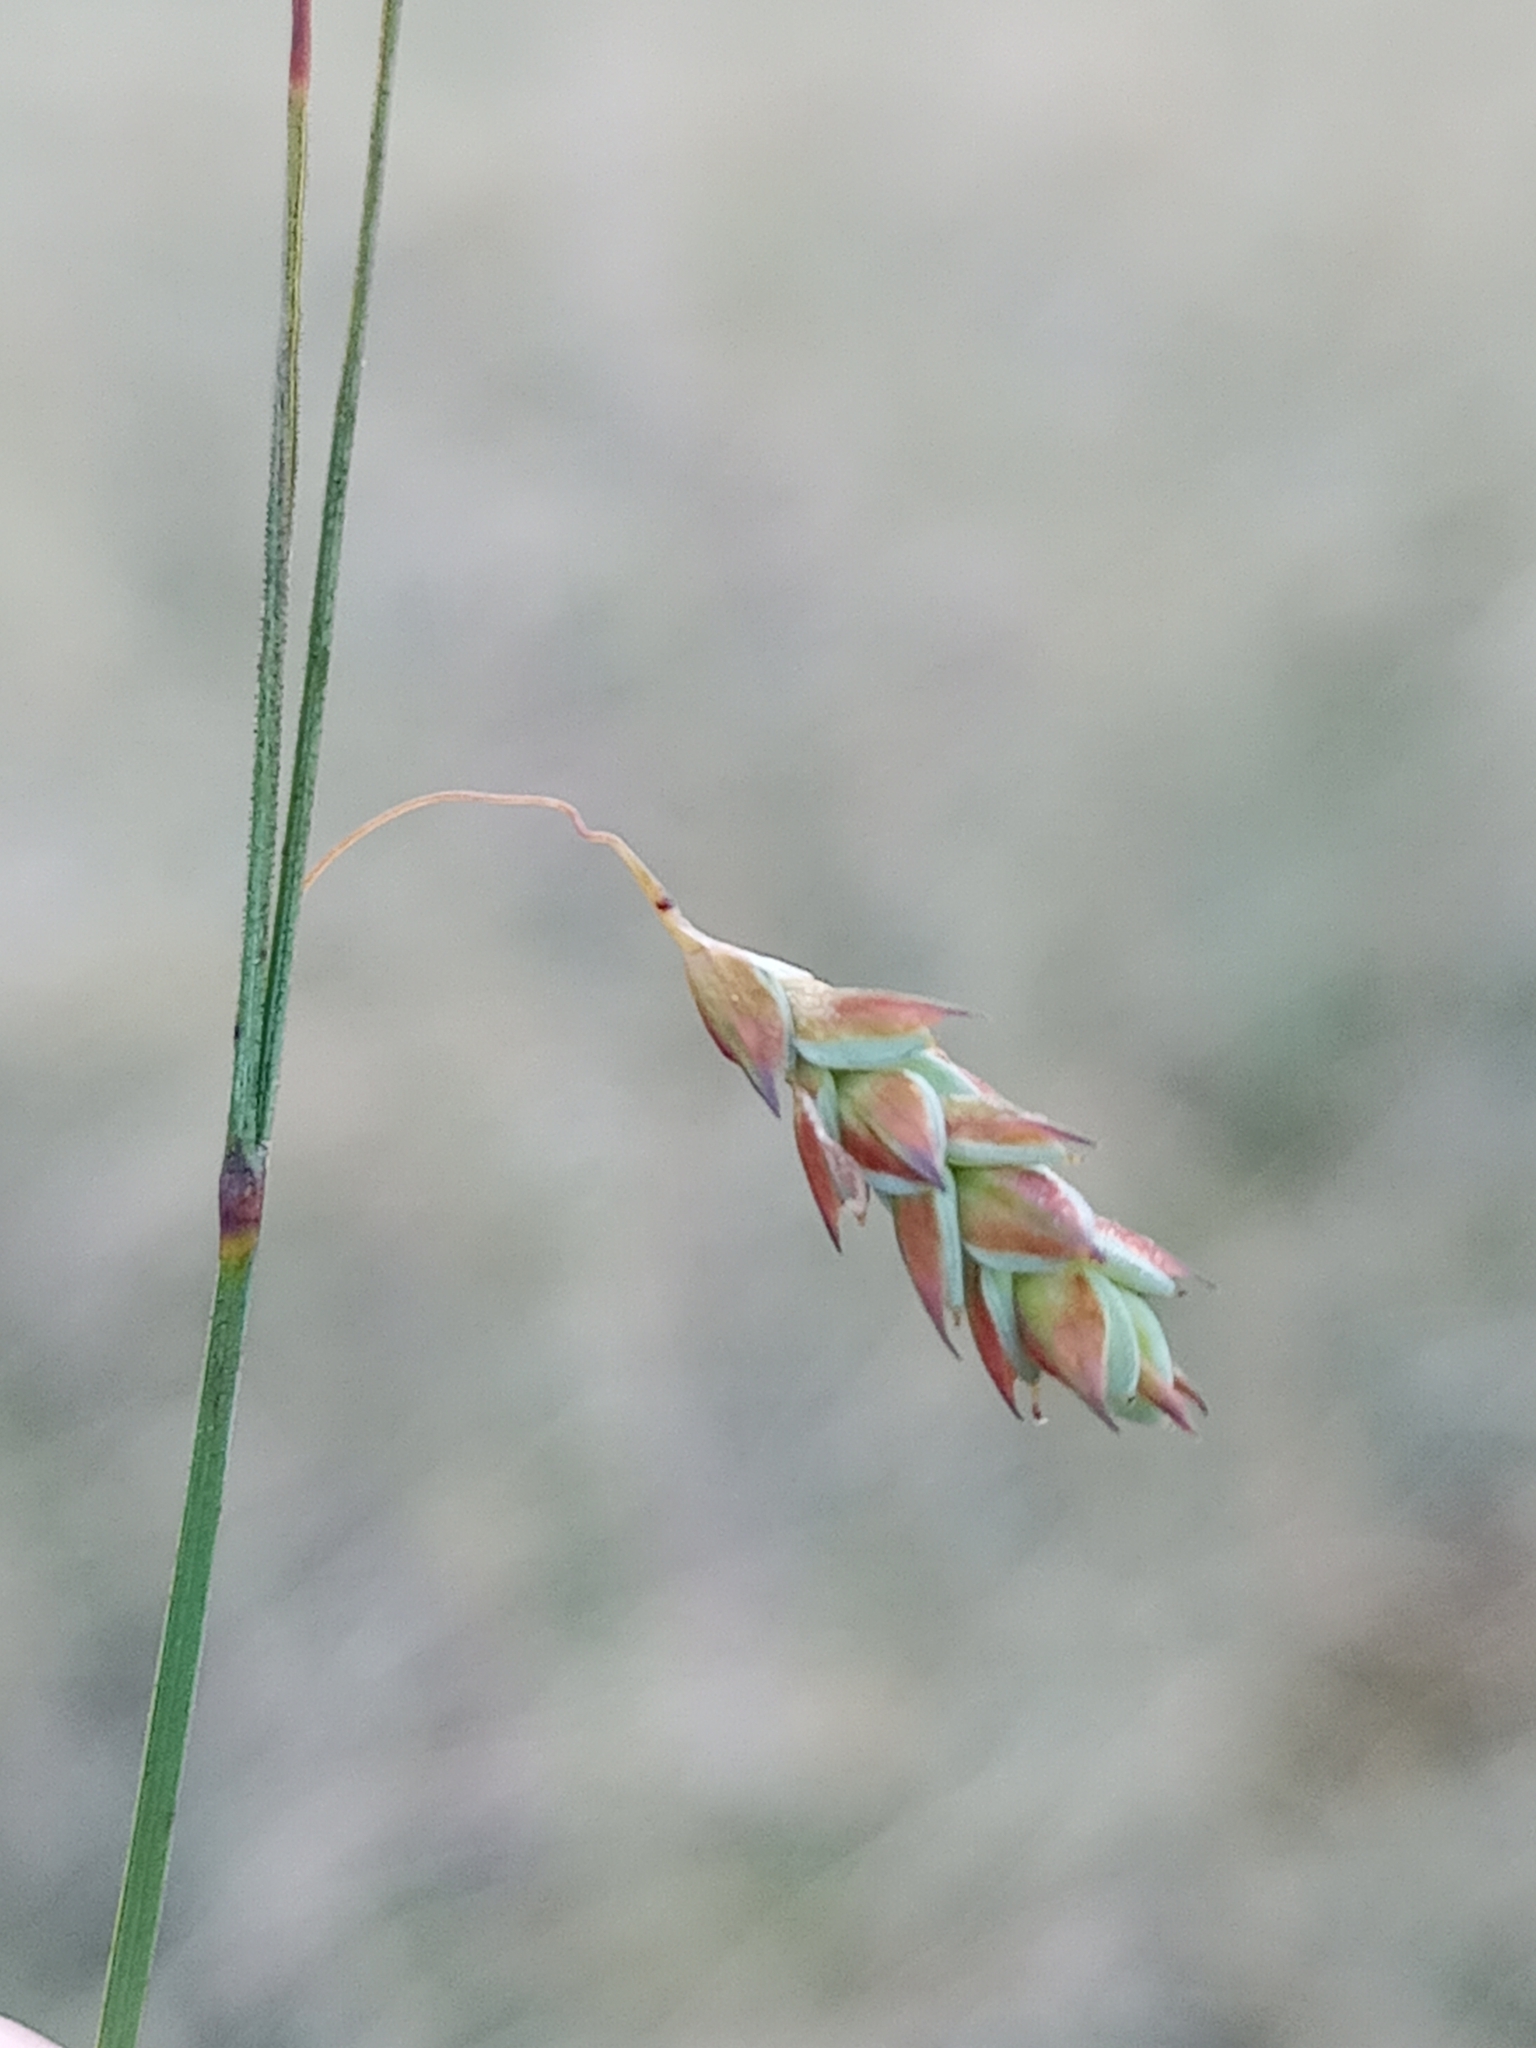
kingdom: Plantae
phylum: Tracheophyta
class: Liliopsida
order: Poales
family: Cyperaceae
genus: Carex
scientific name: Carex limosa
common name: Bog sedge
